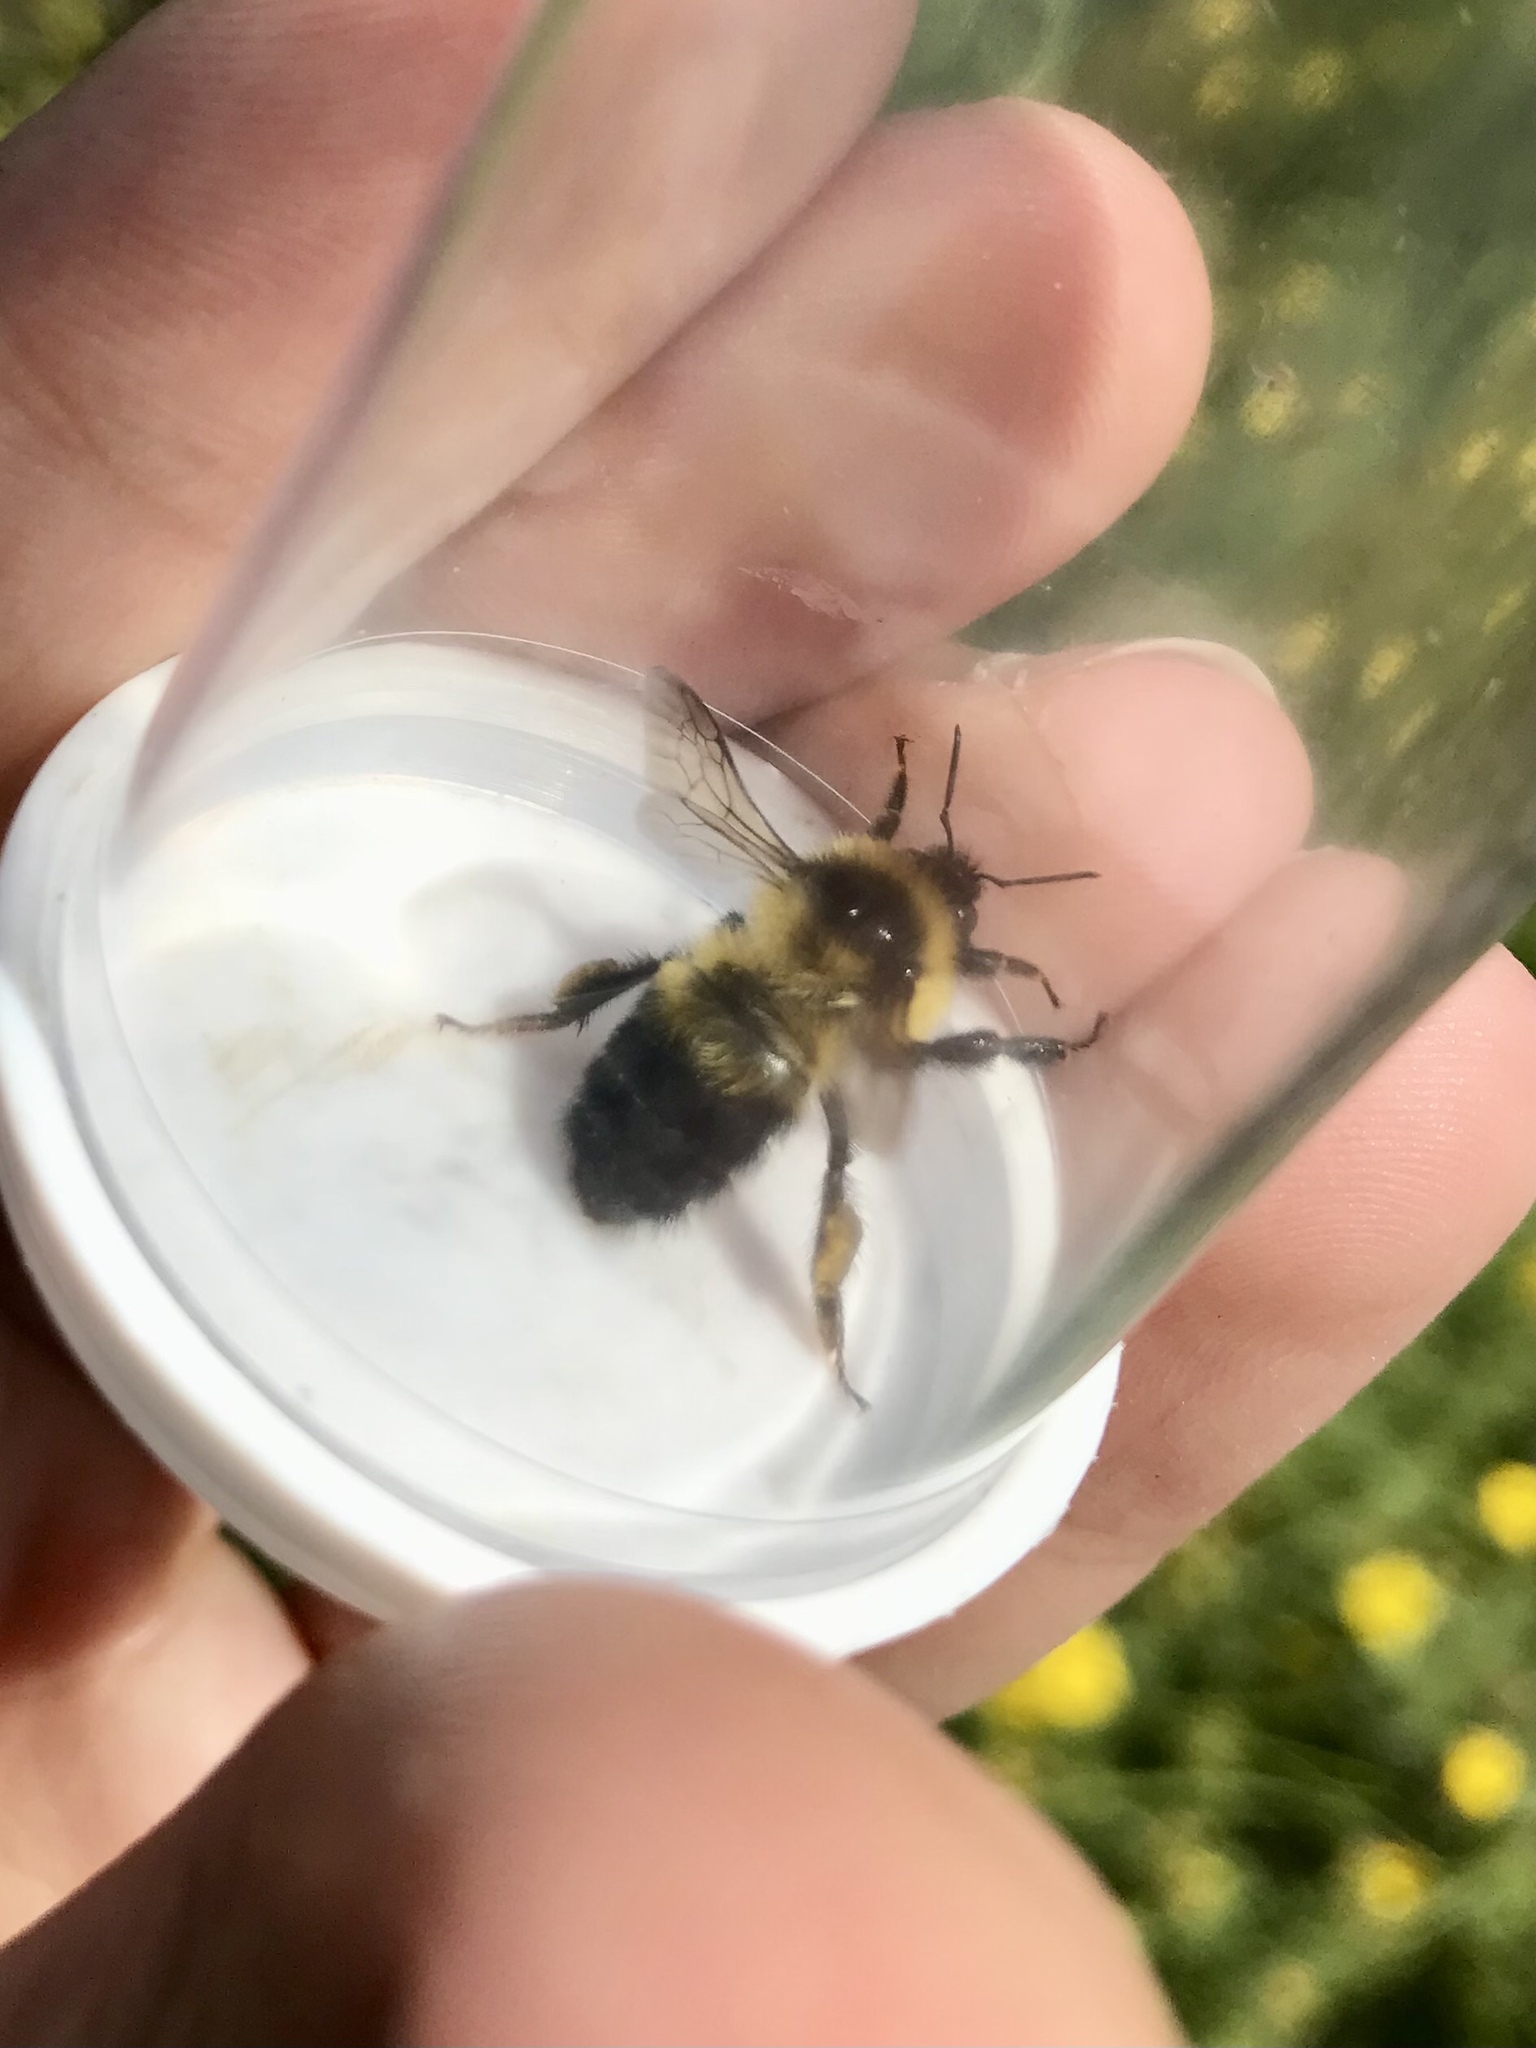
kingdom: Animalia
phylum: Arthropoda
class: Insecta
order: Hymenoptera
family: Apidae
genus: Bombus
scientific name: Bombus rufocinctus
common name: Red-belted bumble bee
